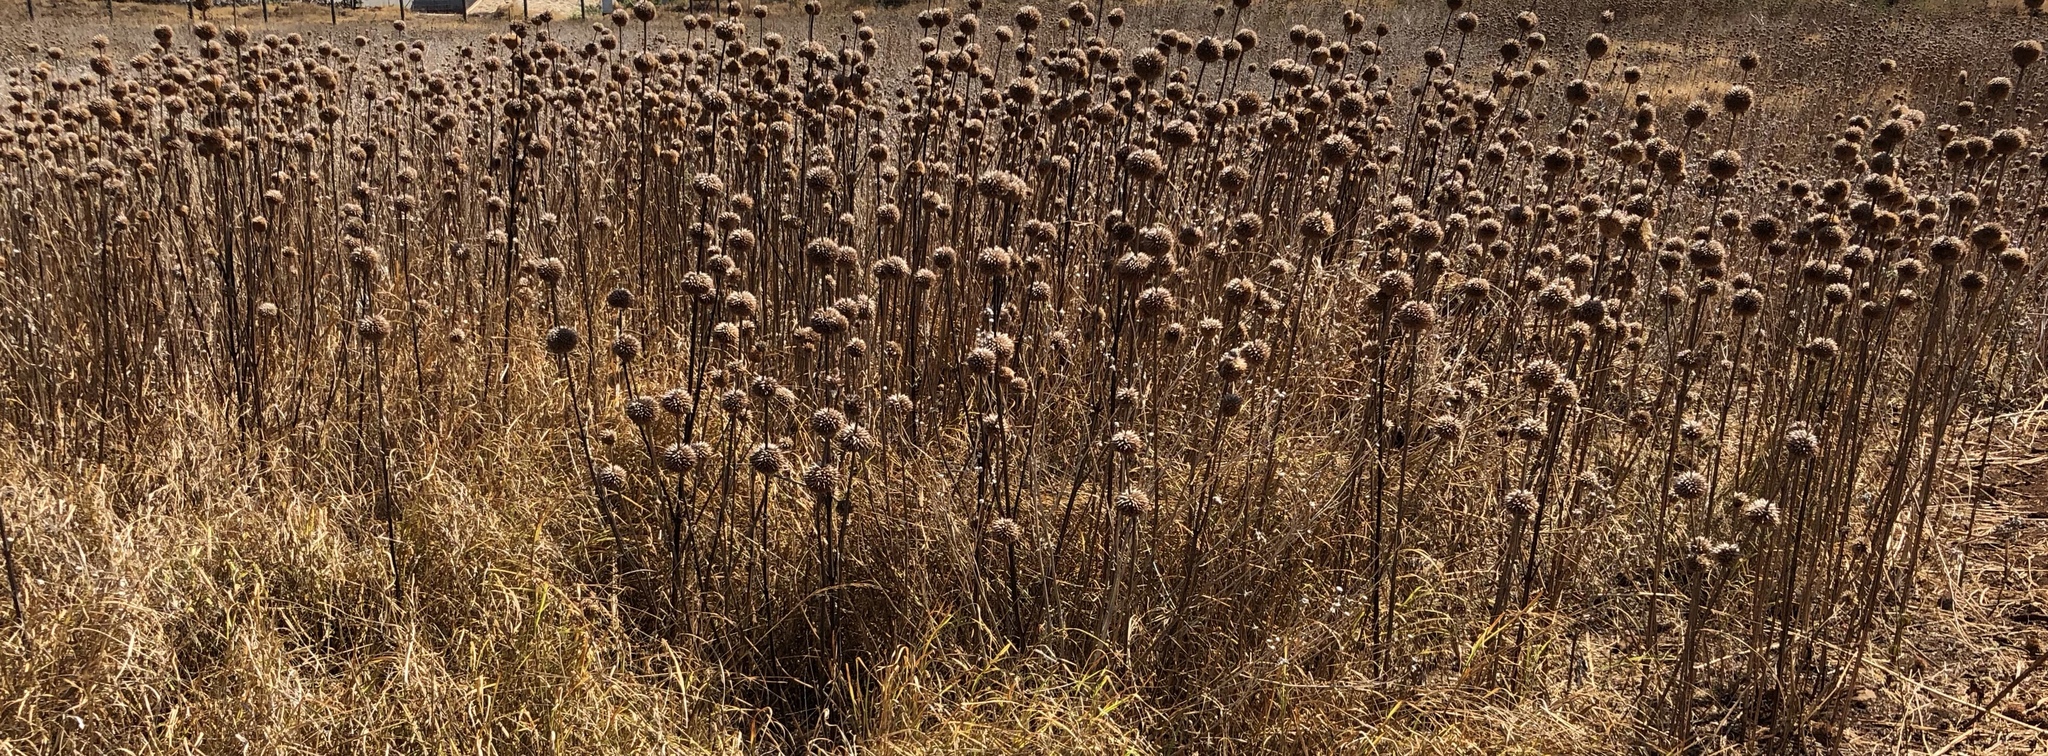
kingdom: Plantae
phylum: Tracheophyta
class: Magnoliopsida
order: Lamiales
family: Lamiaceae
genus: Leonotis
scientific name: Leonotis nepetifolia
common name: Christmas candlestick
